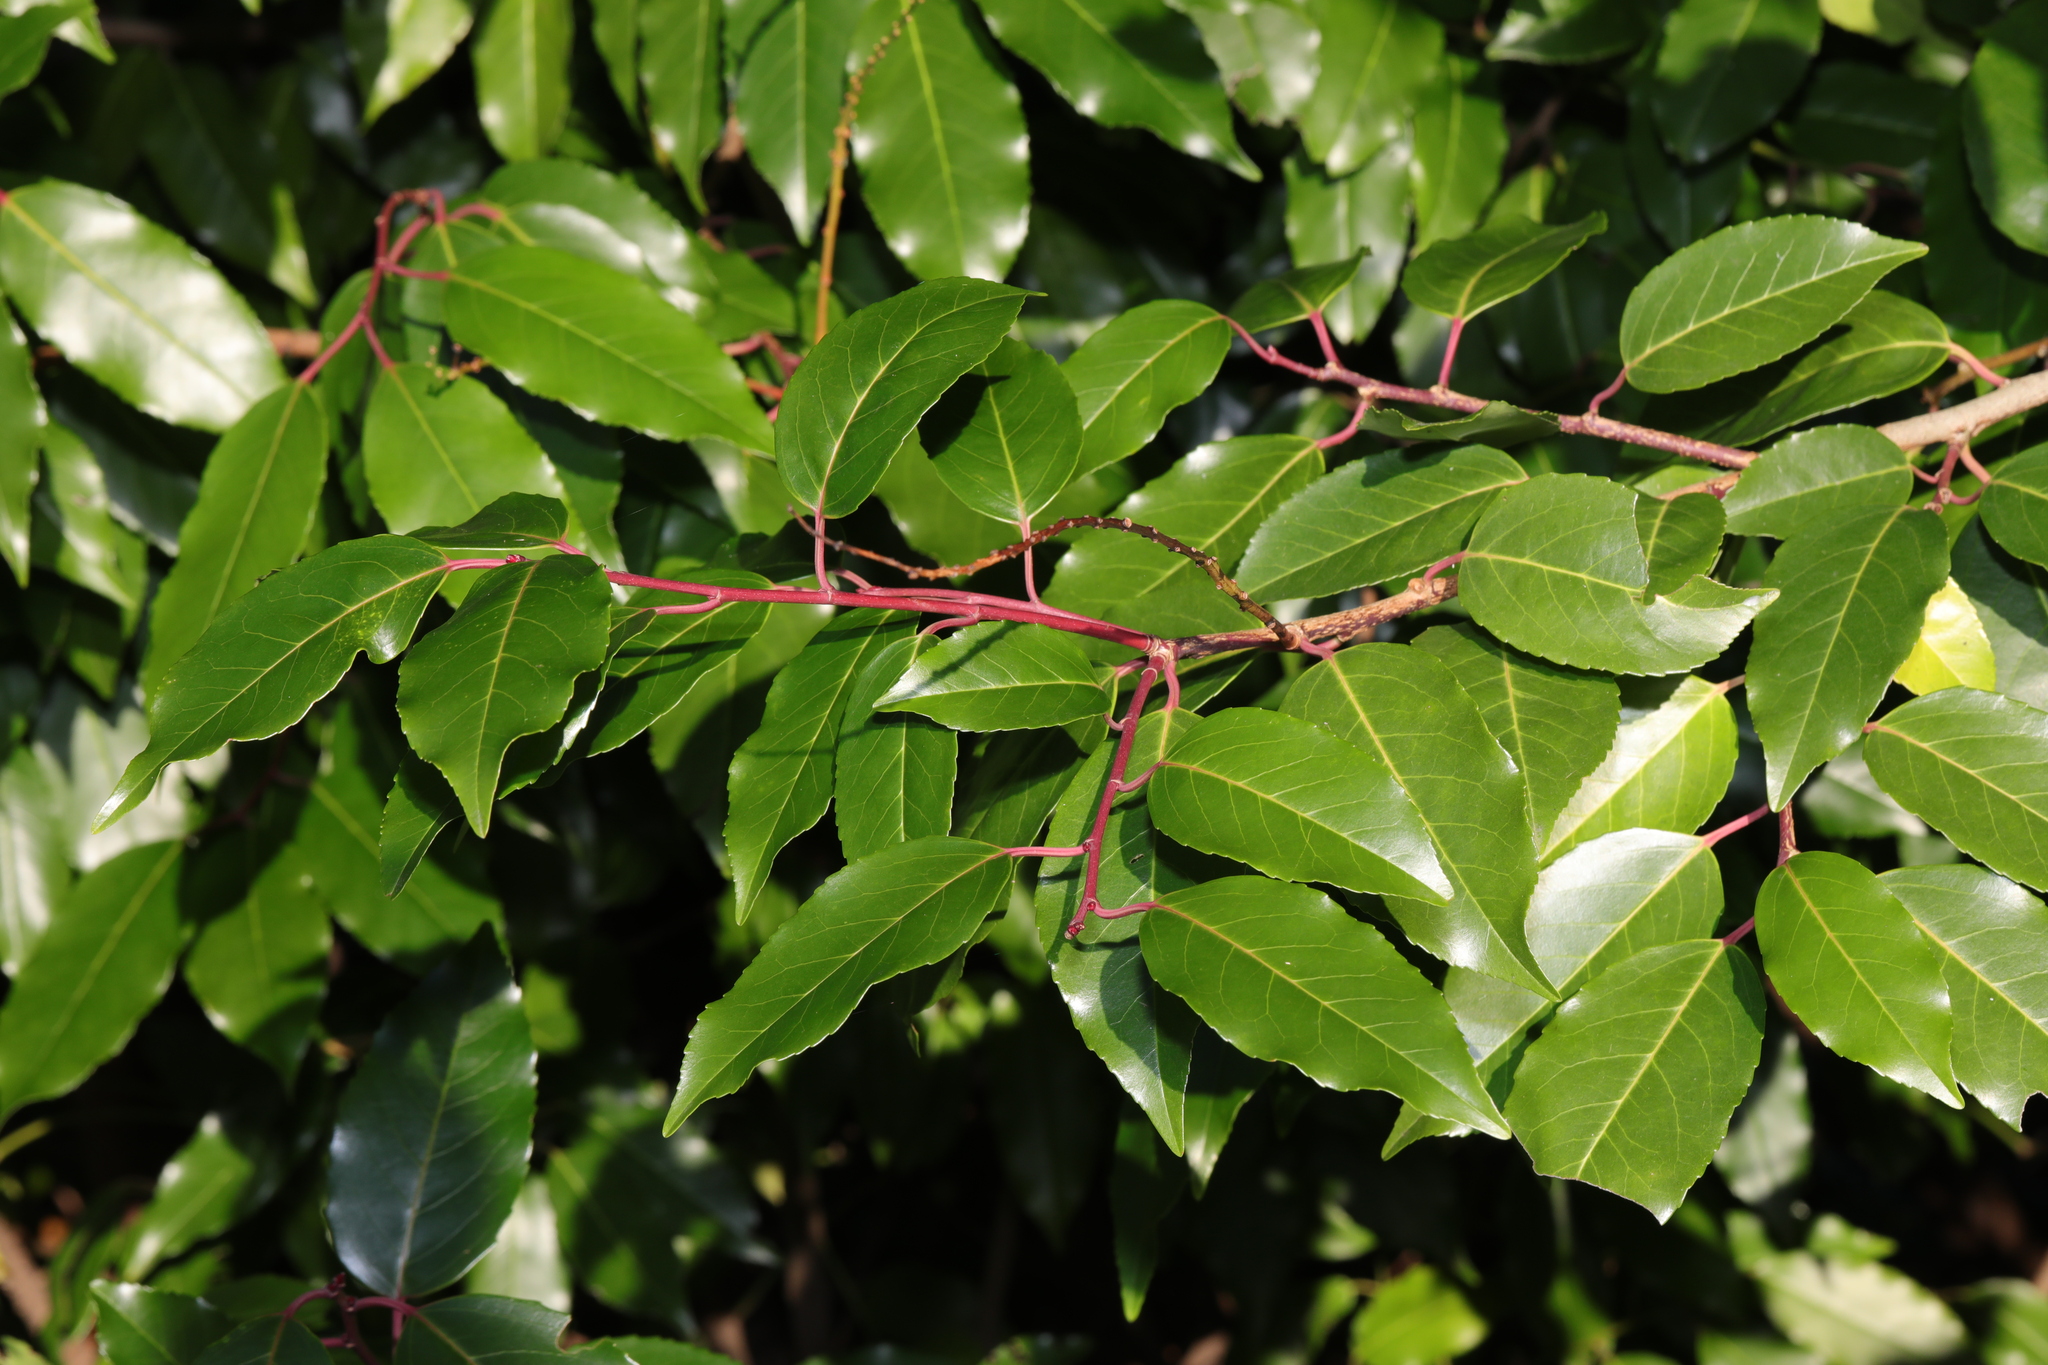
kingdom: Plantae
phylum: Tracheophyta
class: Magnoliopsida
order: Rosales
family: Rosaceae
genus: Prunus
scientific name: Prunus lusitanica
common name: Portugal laurel
